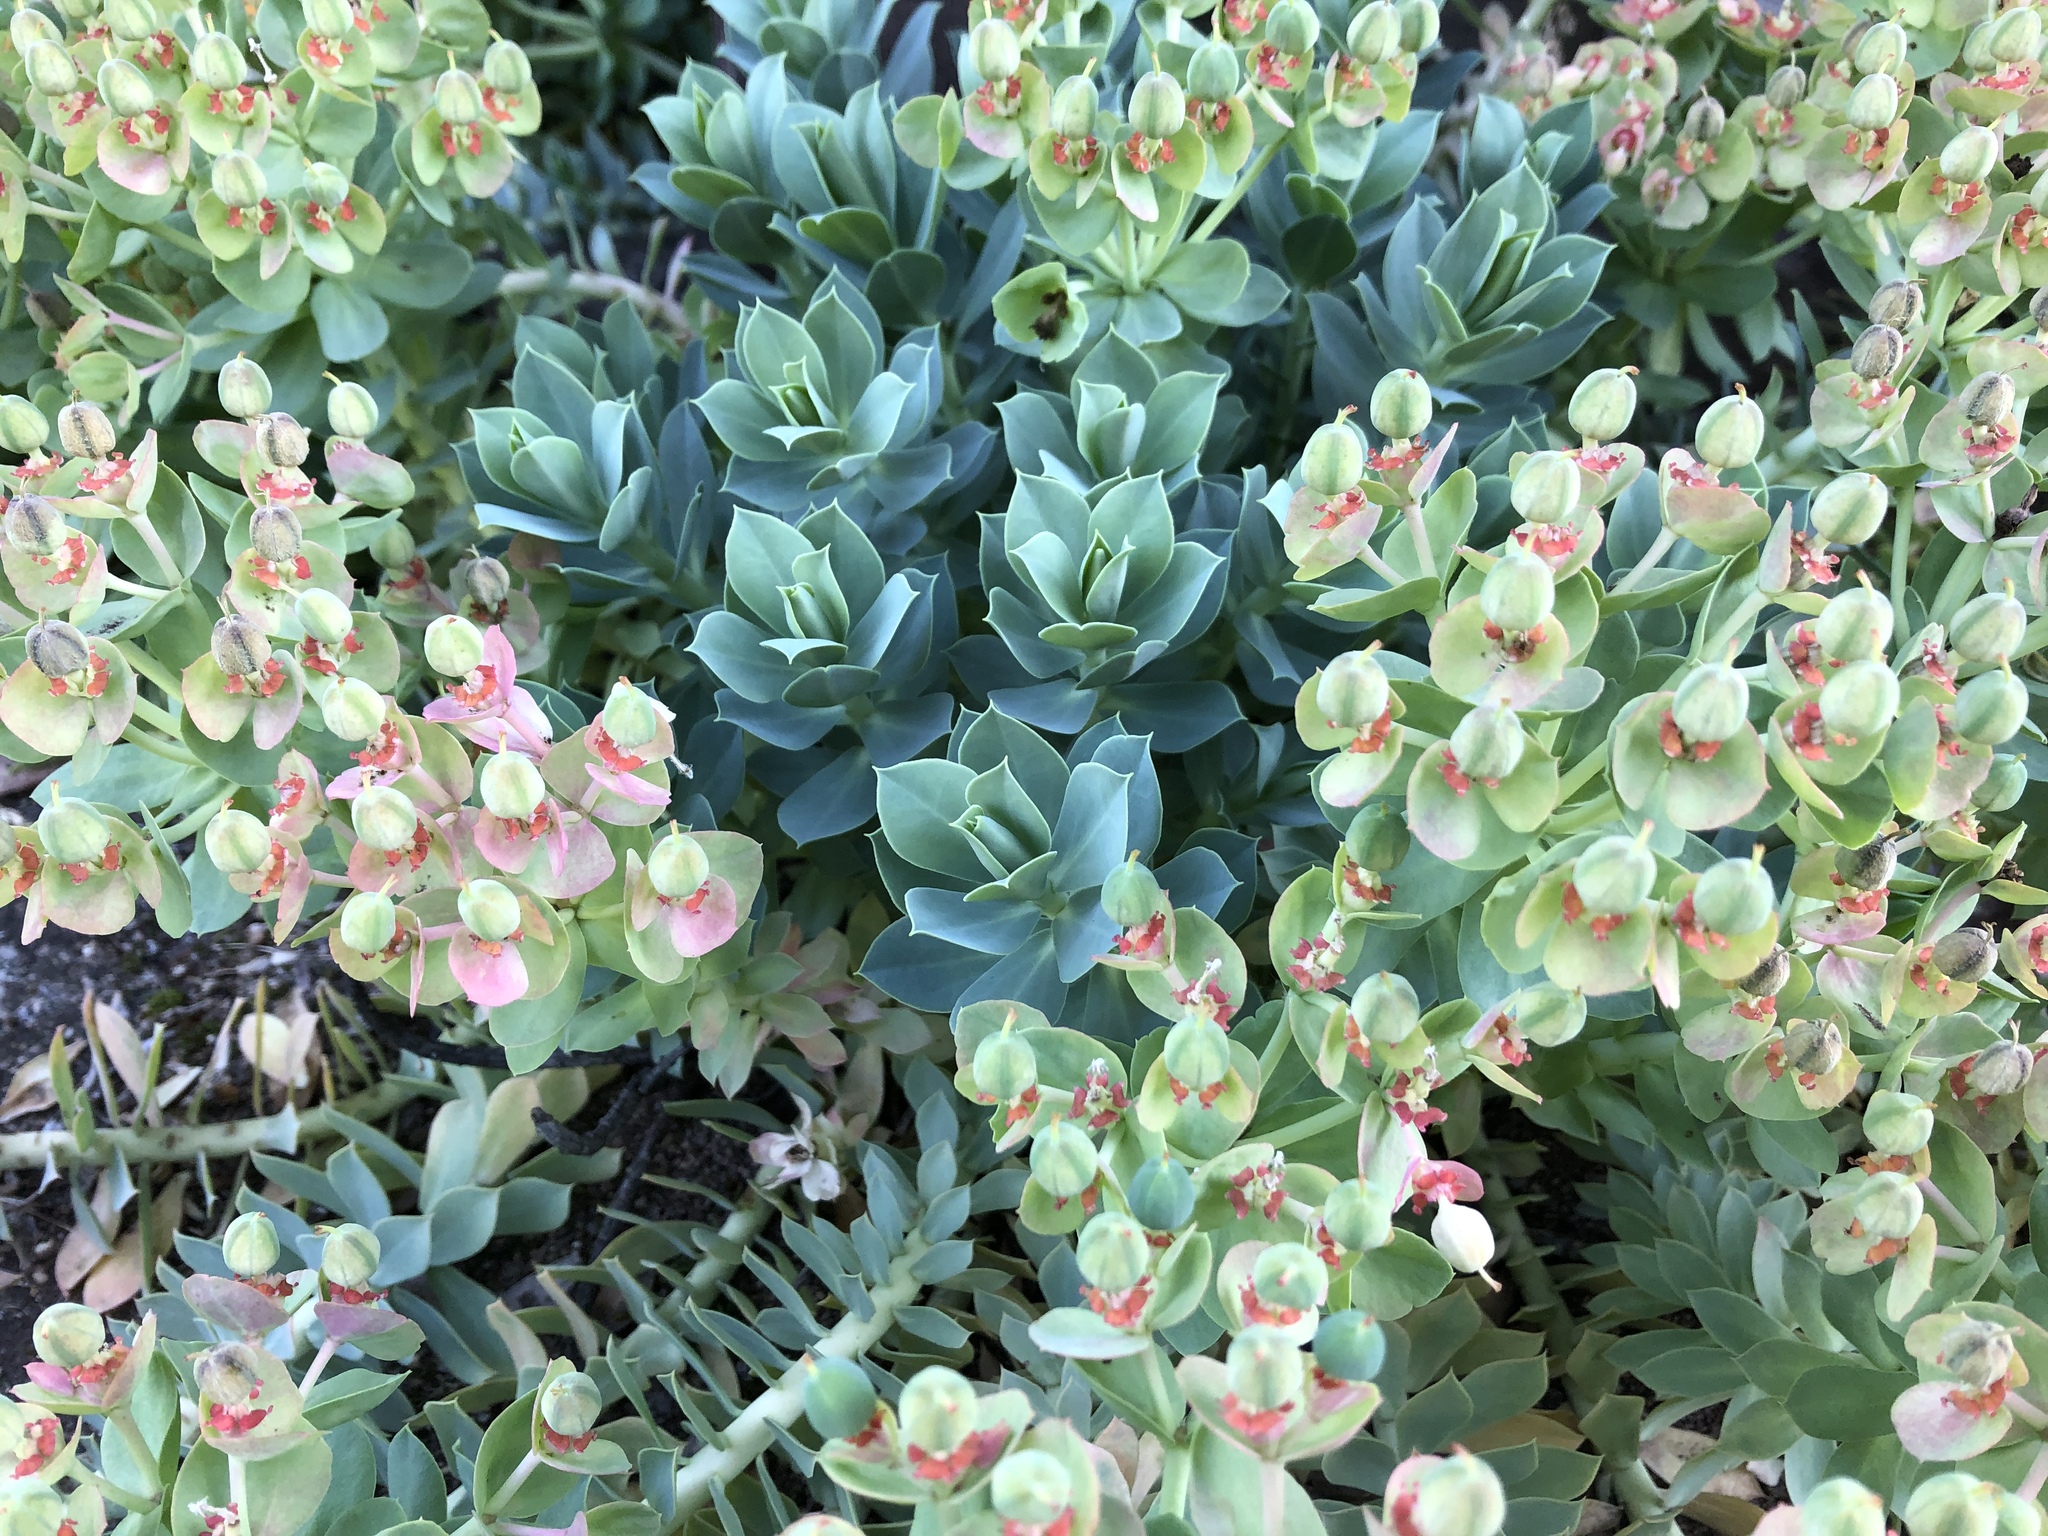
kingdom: Plantae
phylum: Tracheophyta
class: Magnoliopsida
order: Malpighiales
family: Euphorbiaceae
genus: Euphorbia
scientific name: Euphorbia myrsinites
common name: Myrtle spurge
